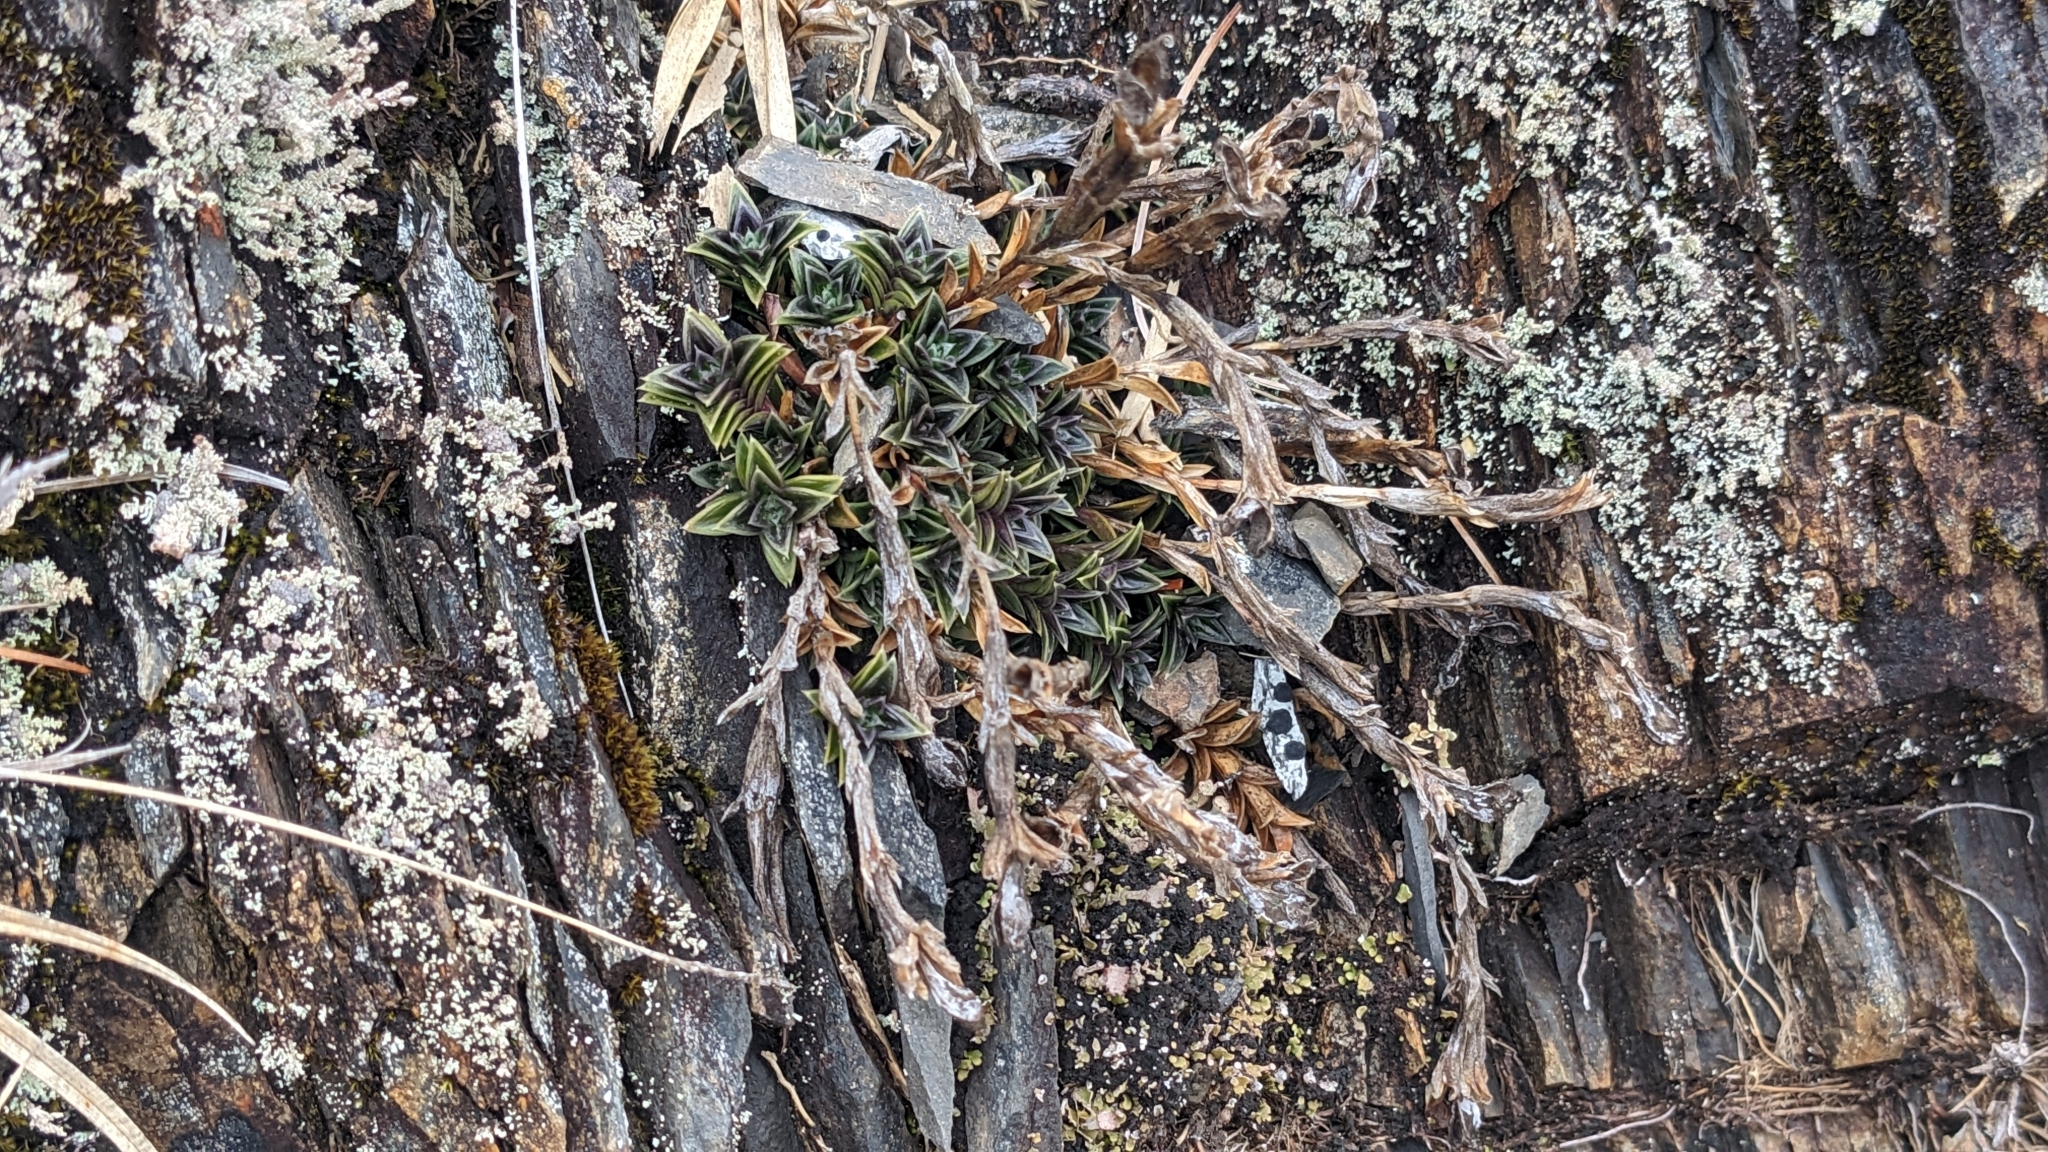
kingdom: Plantae
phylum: Tracheophyta
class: Magnoliopsida
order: Gentianales
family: Gentianaceae
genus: Gentiana
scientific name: Gentiana arisanensis
